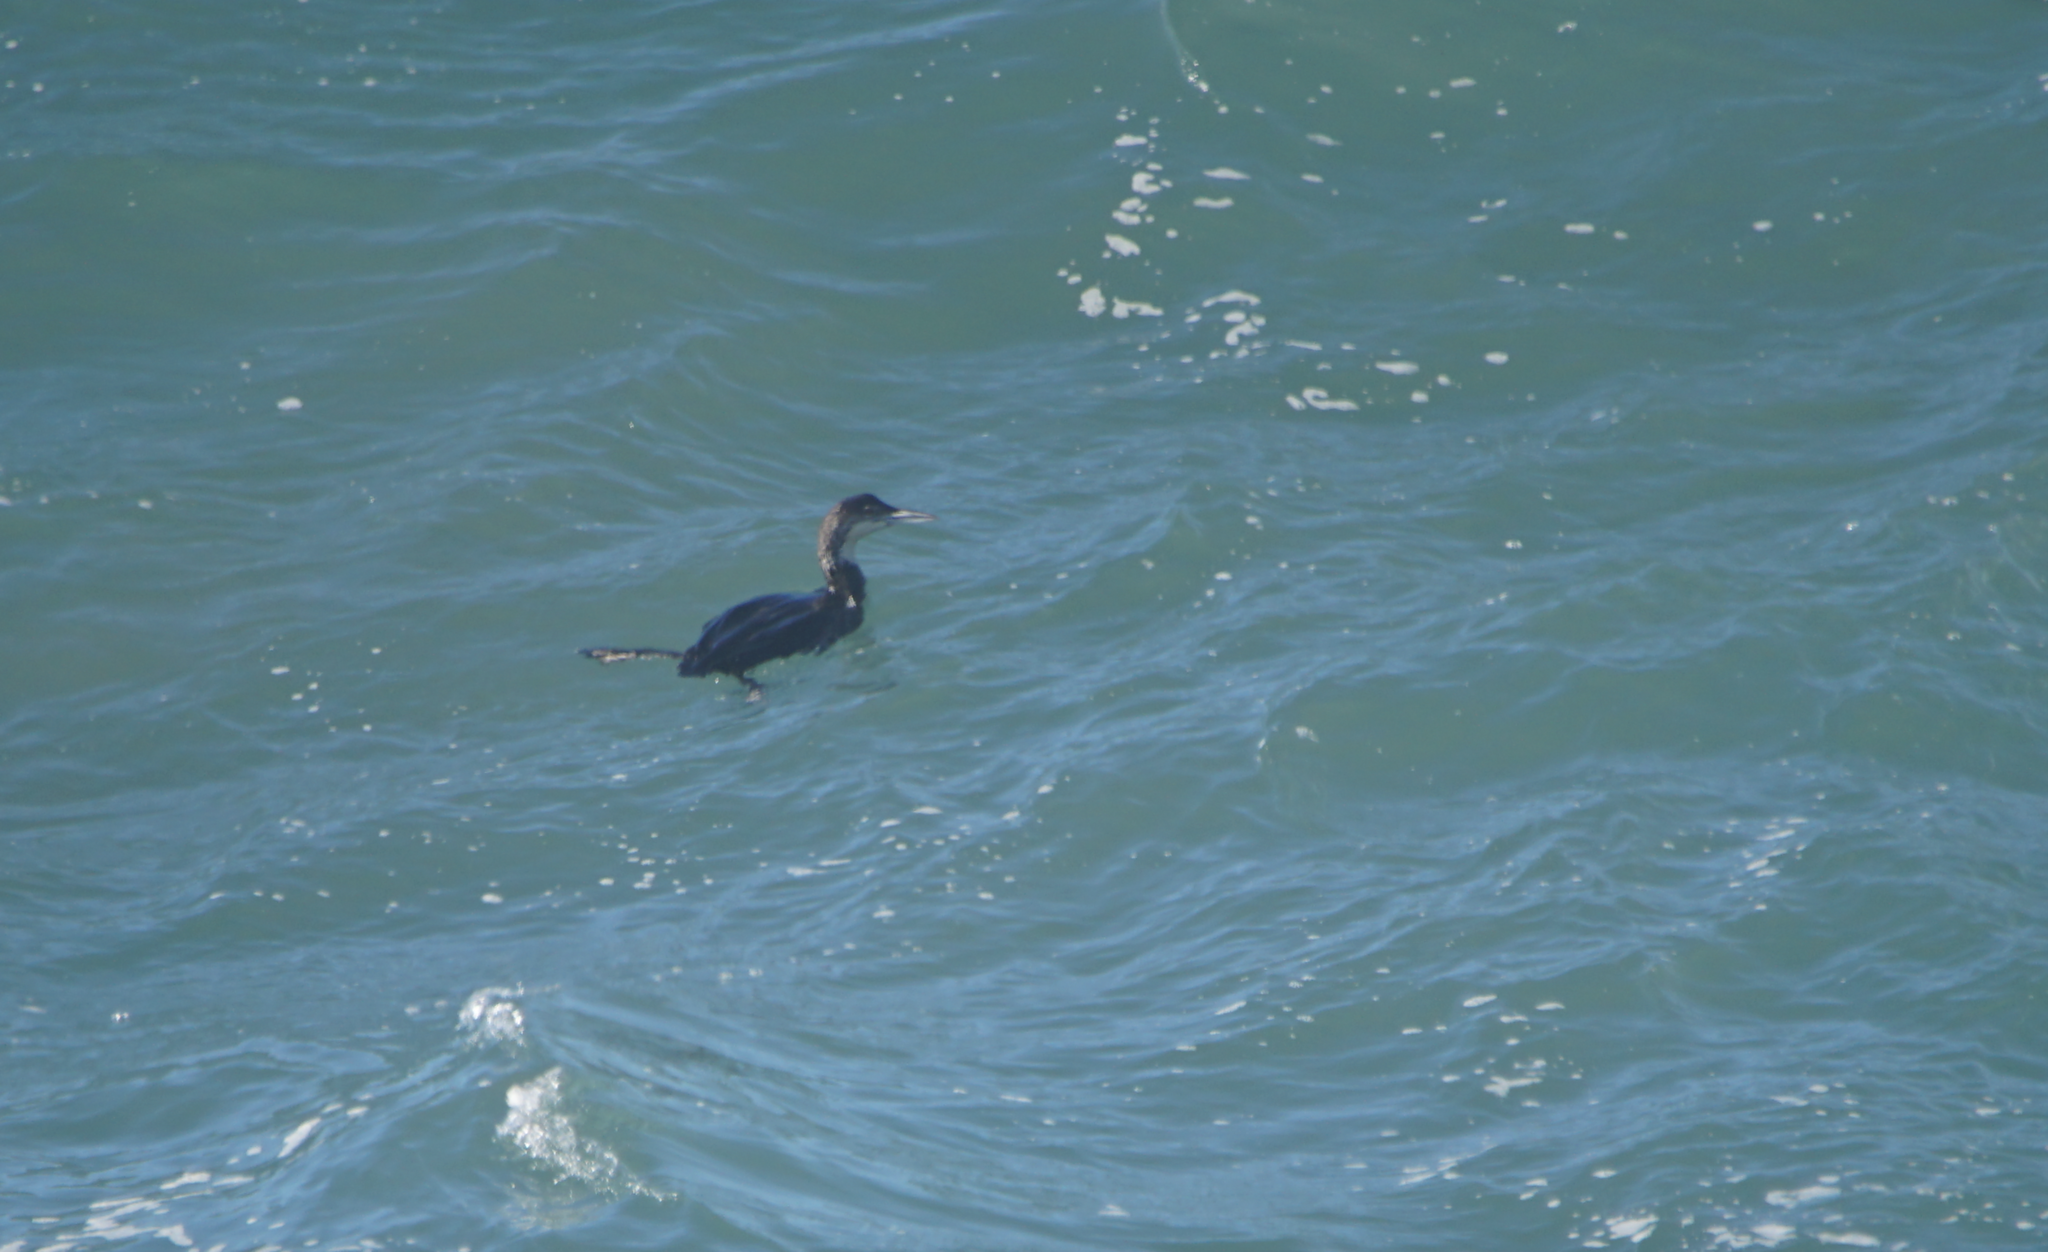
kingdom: Animalia
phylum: Chordata
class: Aves
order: Gaviiformes
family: Gaviidae
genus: Gavia
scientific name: Gavia immer
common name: Common loon
